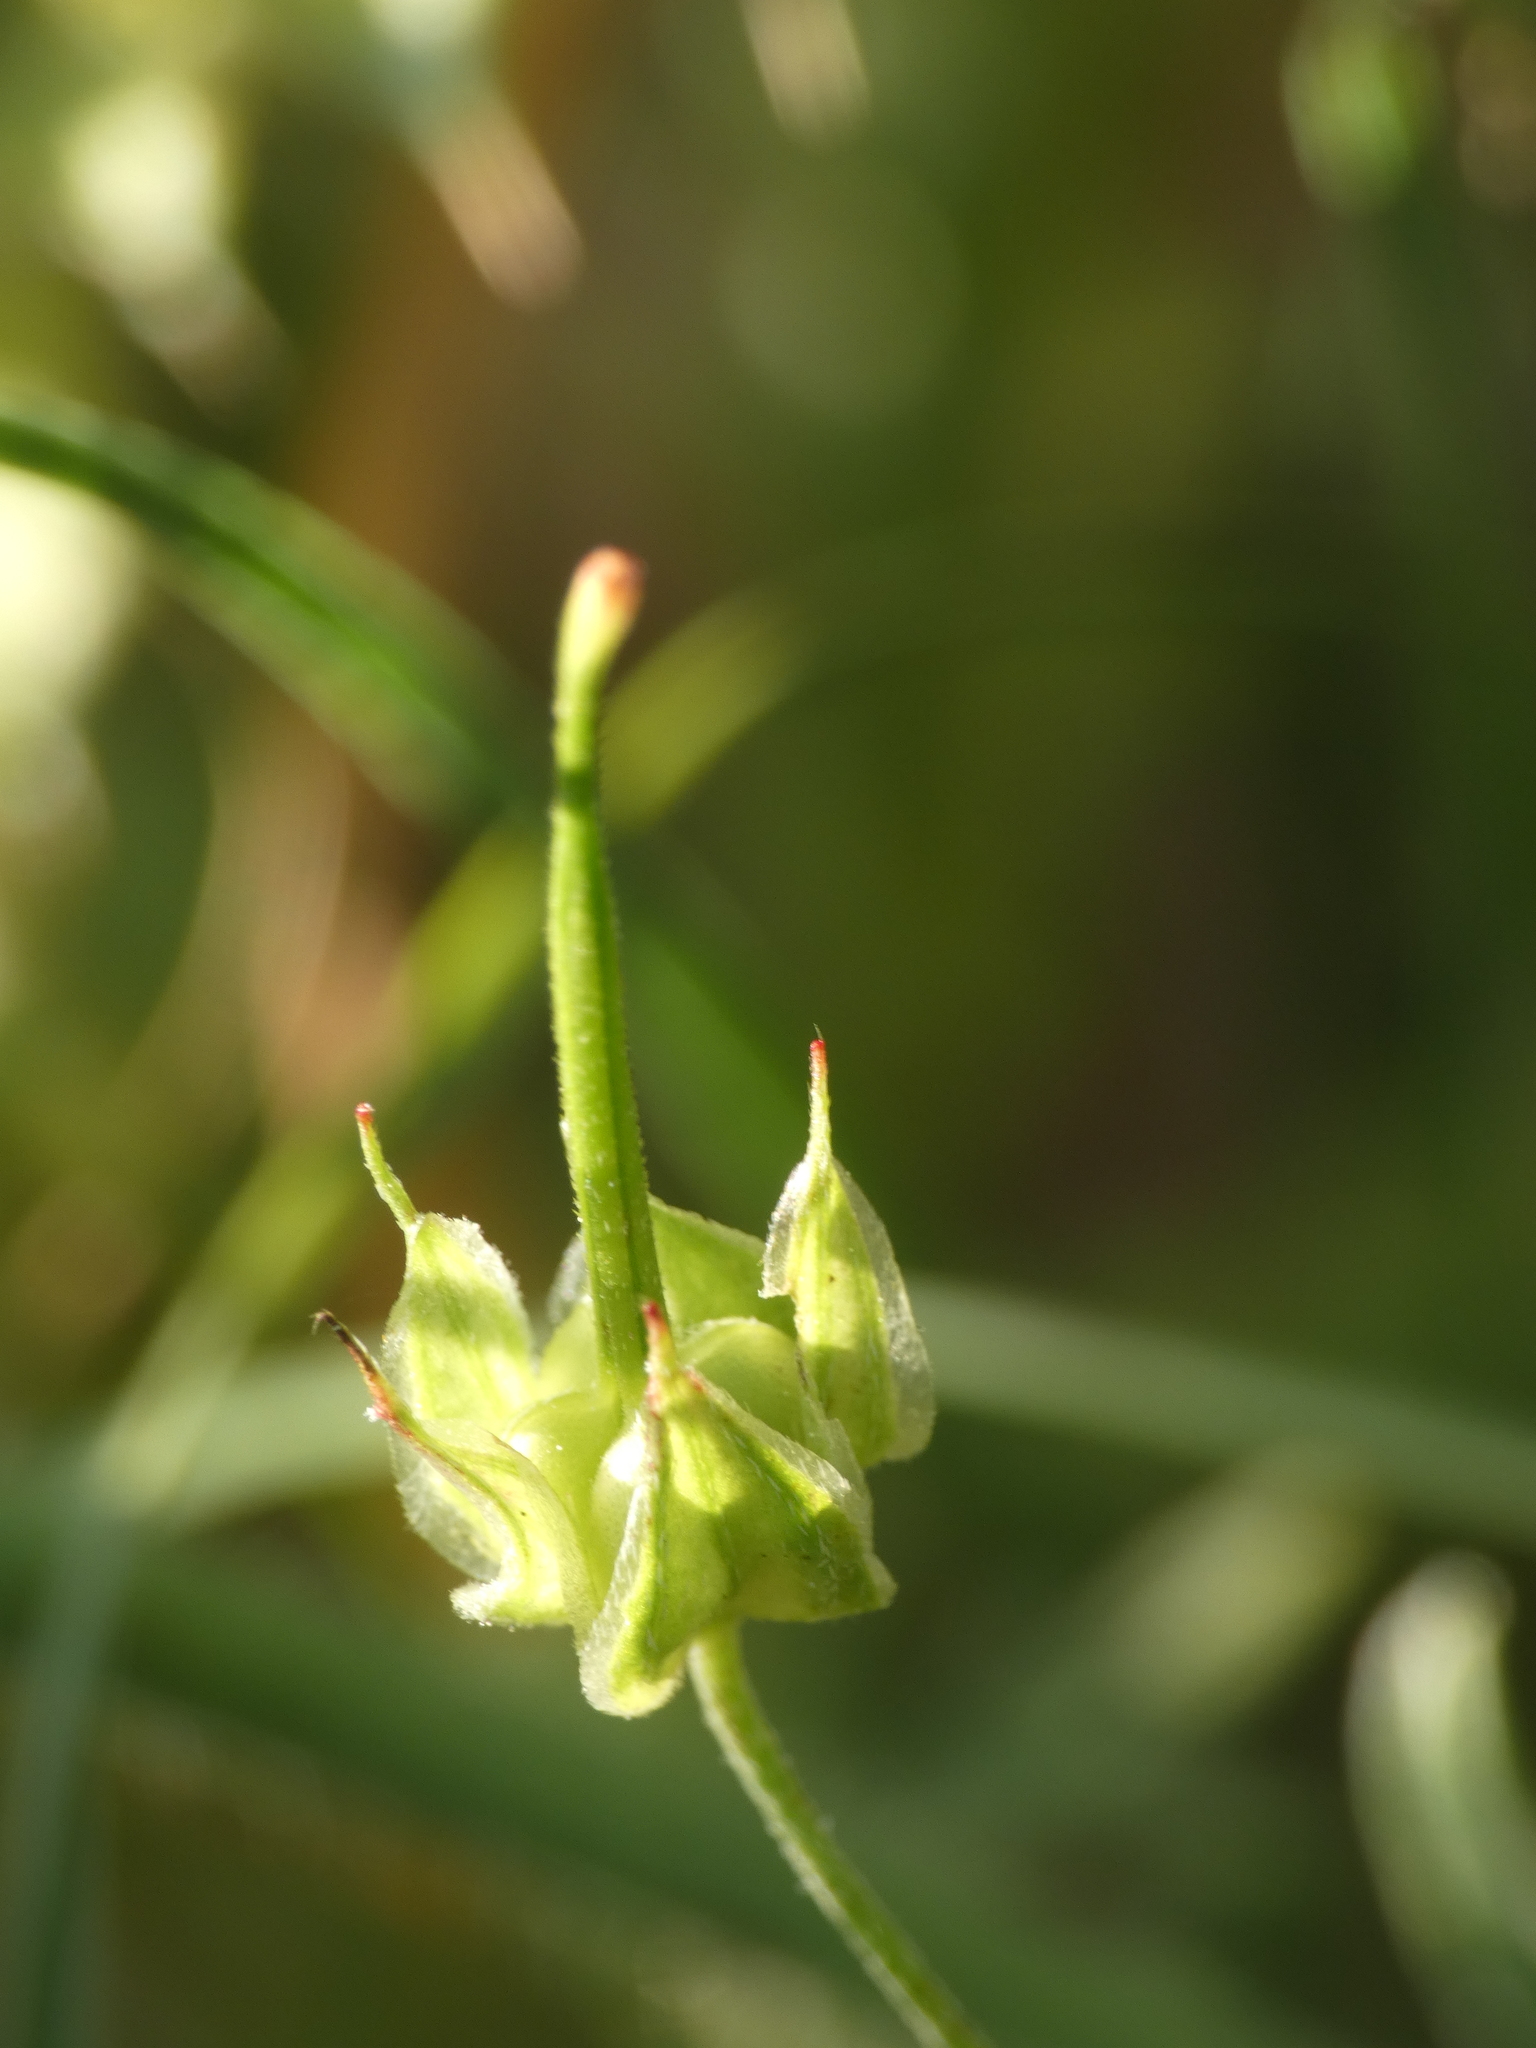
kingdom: Plantae
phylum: Tracheophyta
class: Magnoliopsida
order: Geraniales
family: Geraniaceae
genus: Geranium
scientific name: Geranium columbinum
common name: Long-stalked crane's-bill
